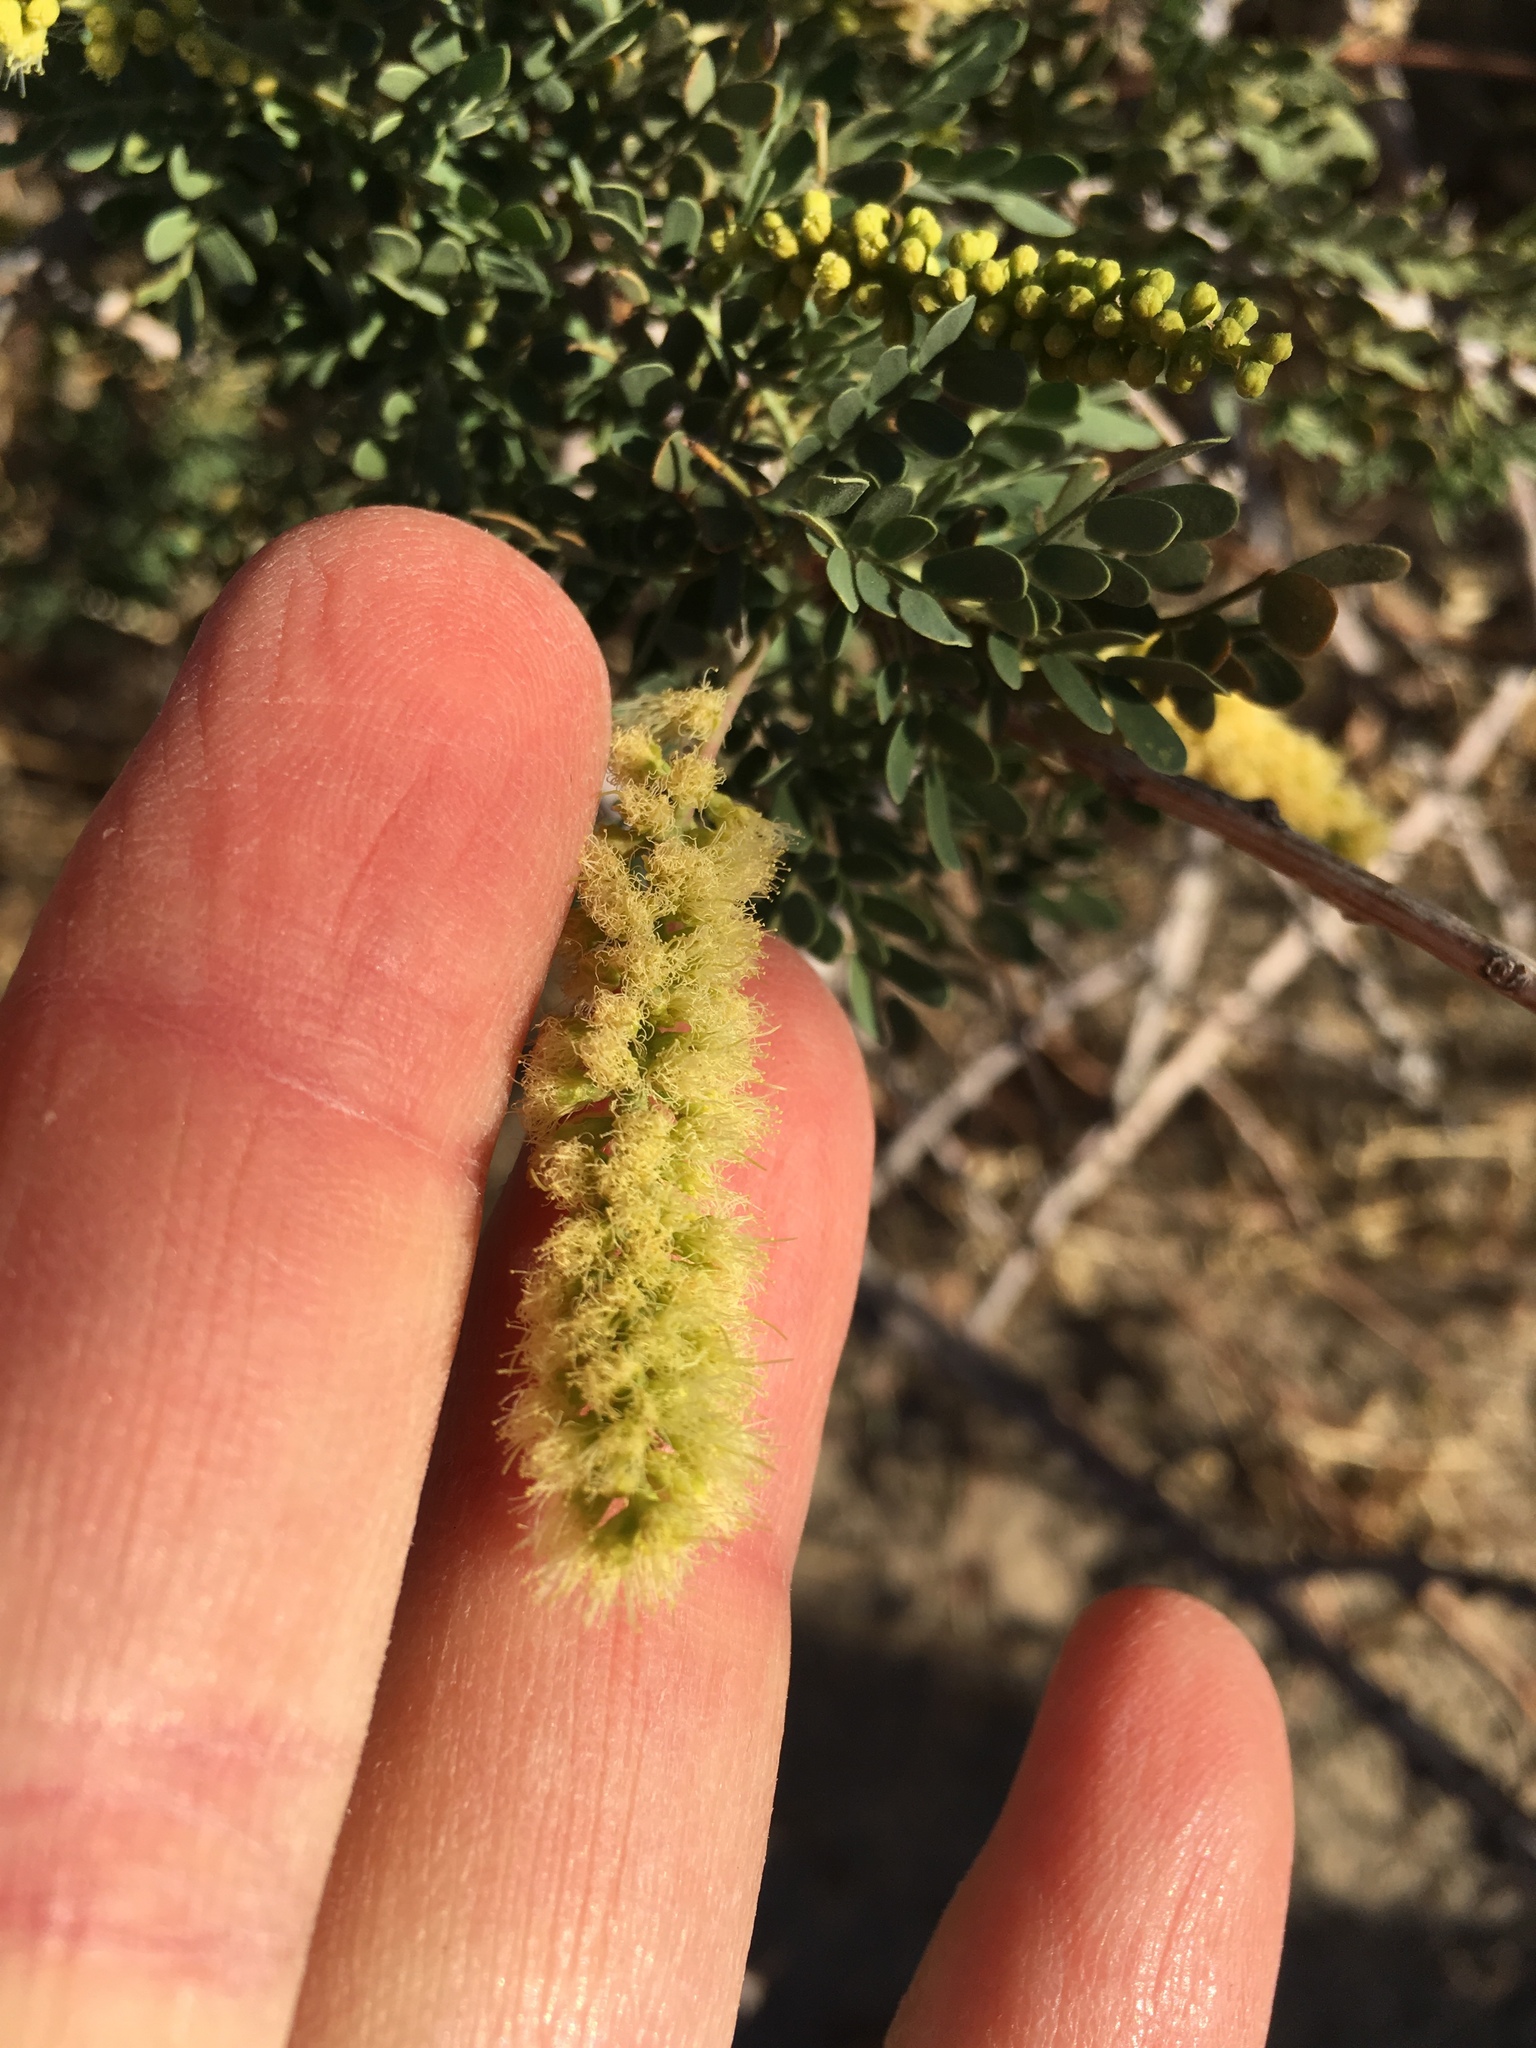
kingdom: Plantae
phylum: Tracheophyta
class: Magnoliopsida
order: Fabales
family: Fabaceae
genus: Senegalia
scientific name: Senegalia greggii
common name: Texas-mimosa
